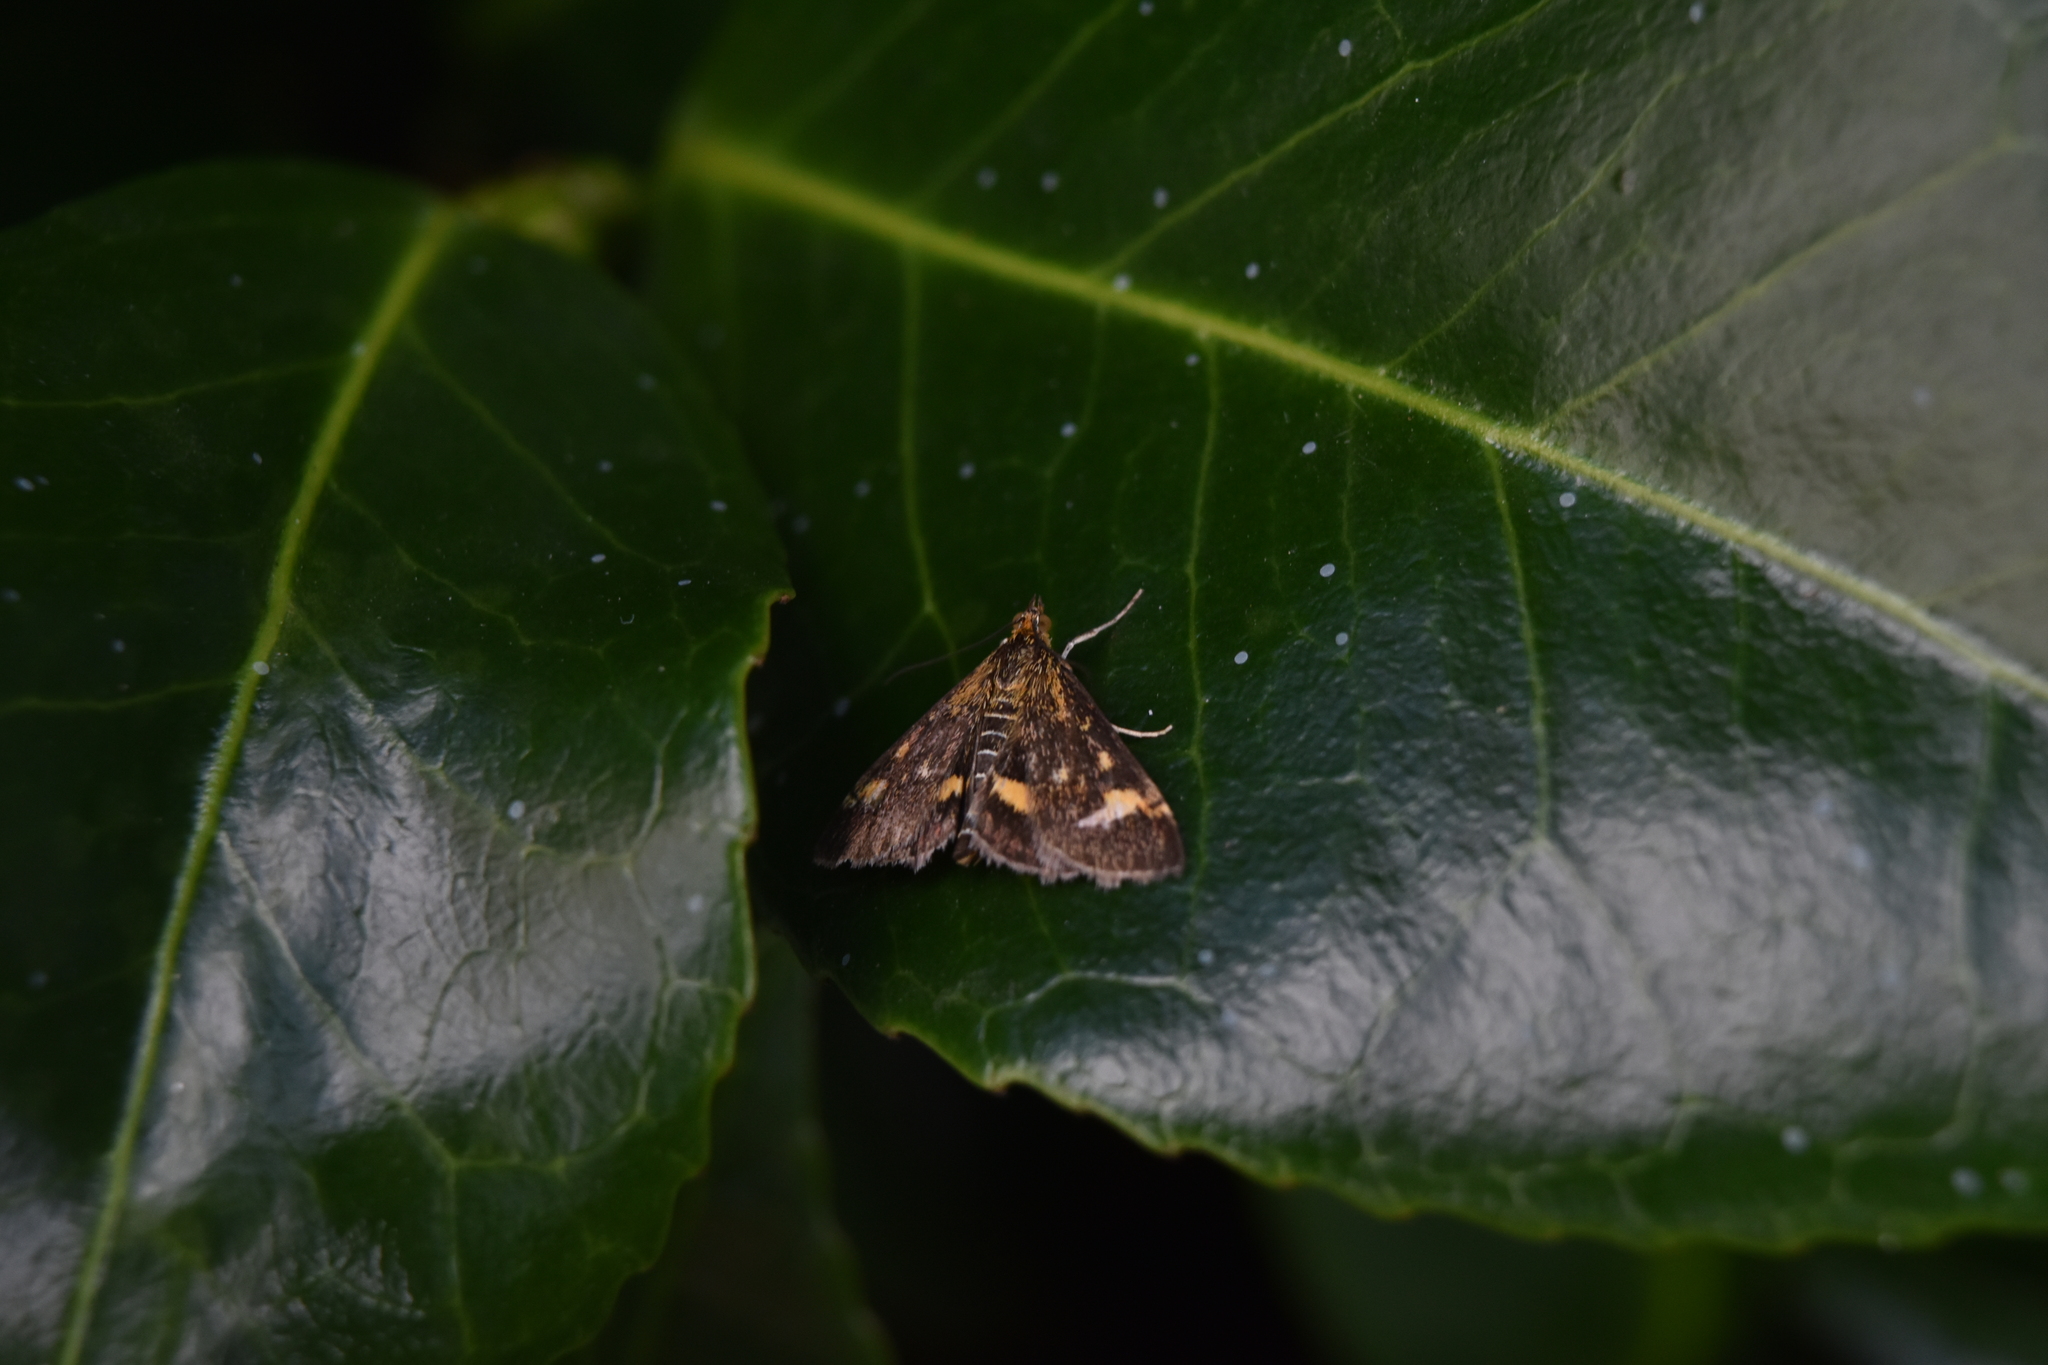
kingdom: Animalia
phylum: Arthropoda
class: Insecta
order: Lepidoptera
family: Crambidae
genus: Pyrausta
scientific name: Pyrausta aurata
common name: Small purple & gold
